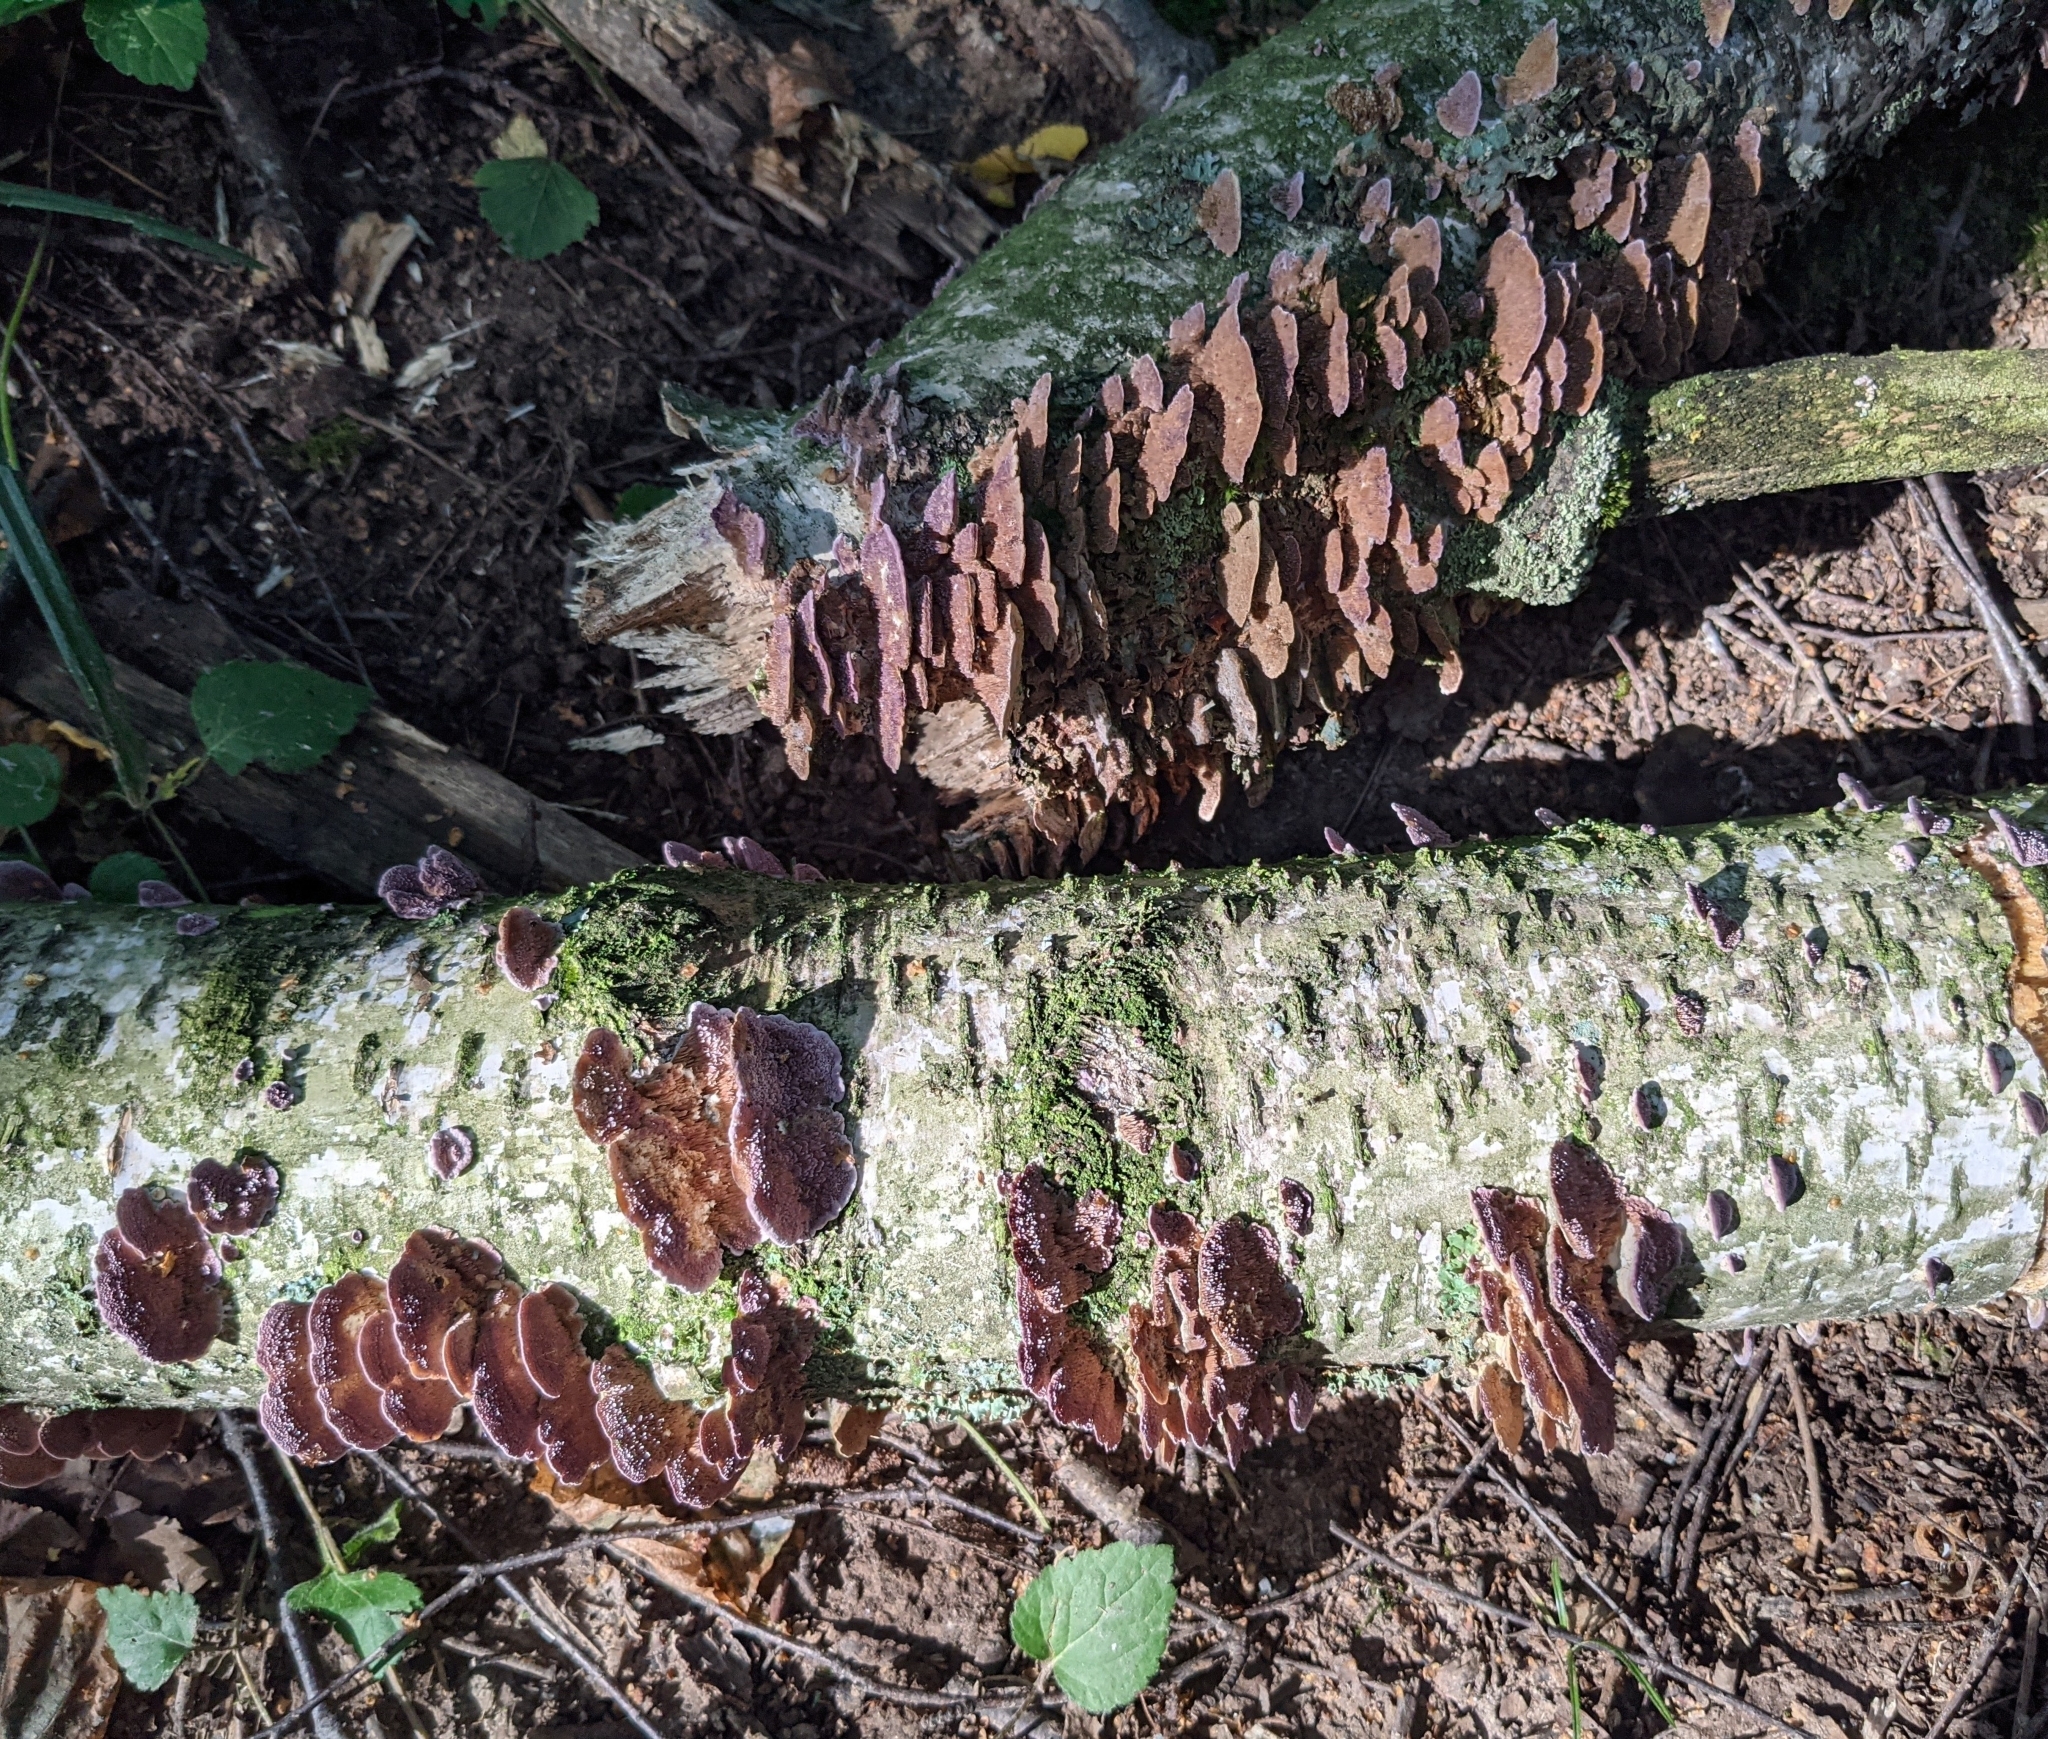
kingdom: Fungi
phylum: Basidiomycota
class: Agaricomycetes
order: Hymenochaetales
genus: Trichaptum
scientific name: Trichaptum biforme
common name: Violet-toothed polypore
